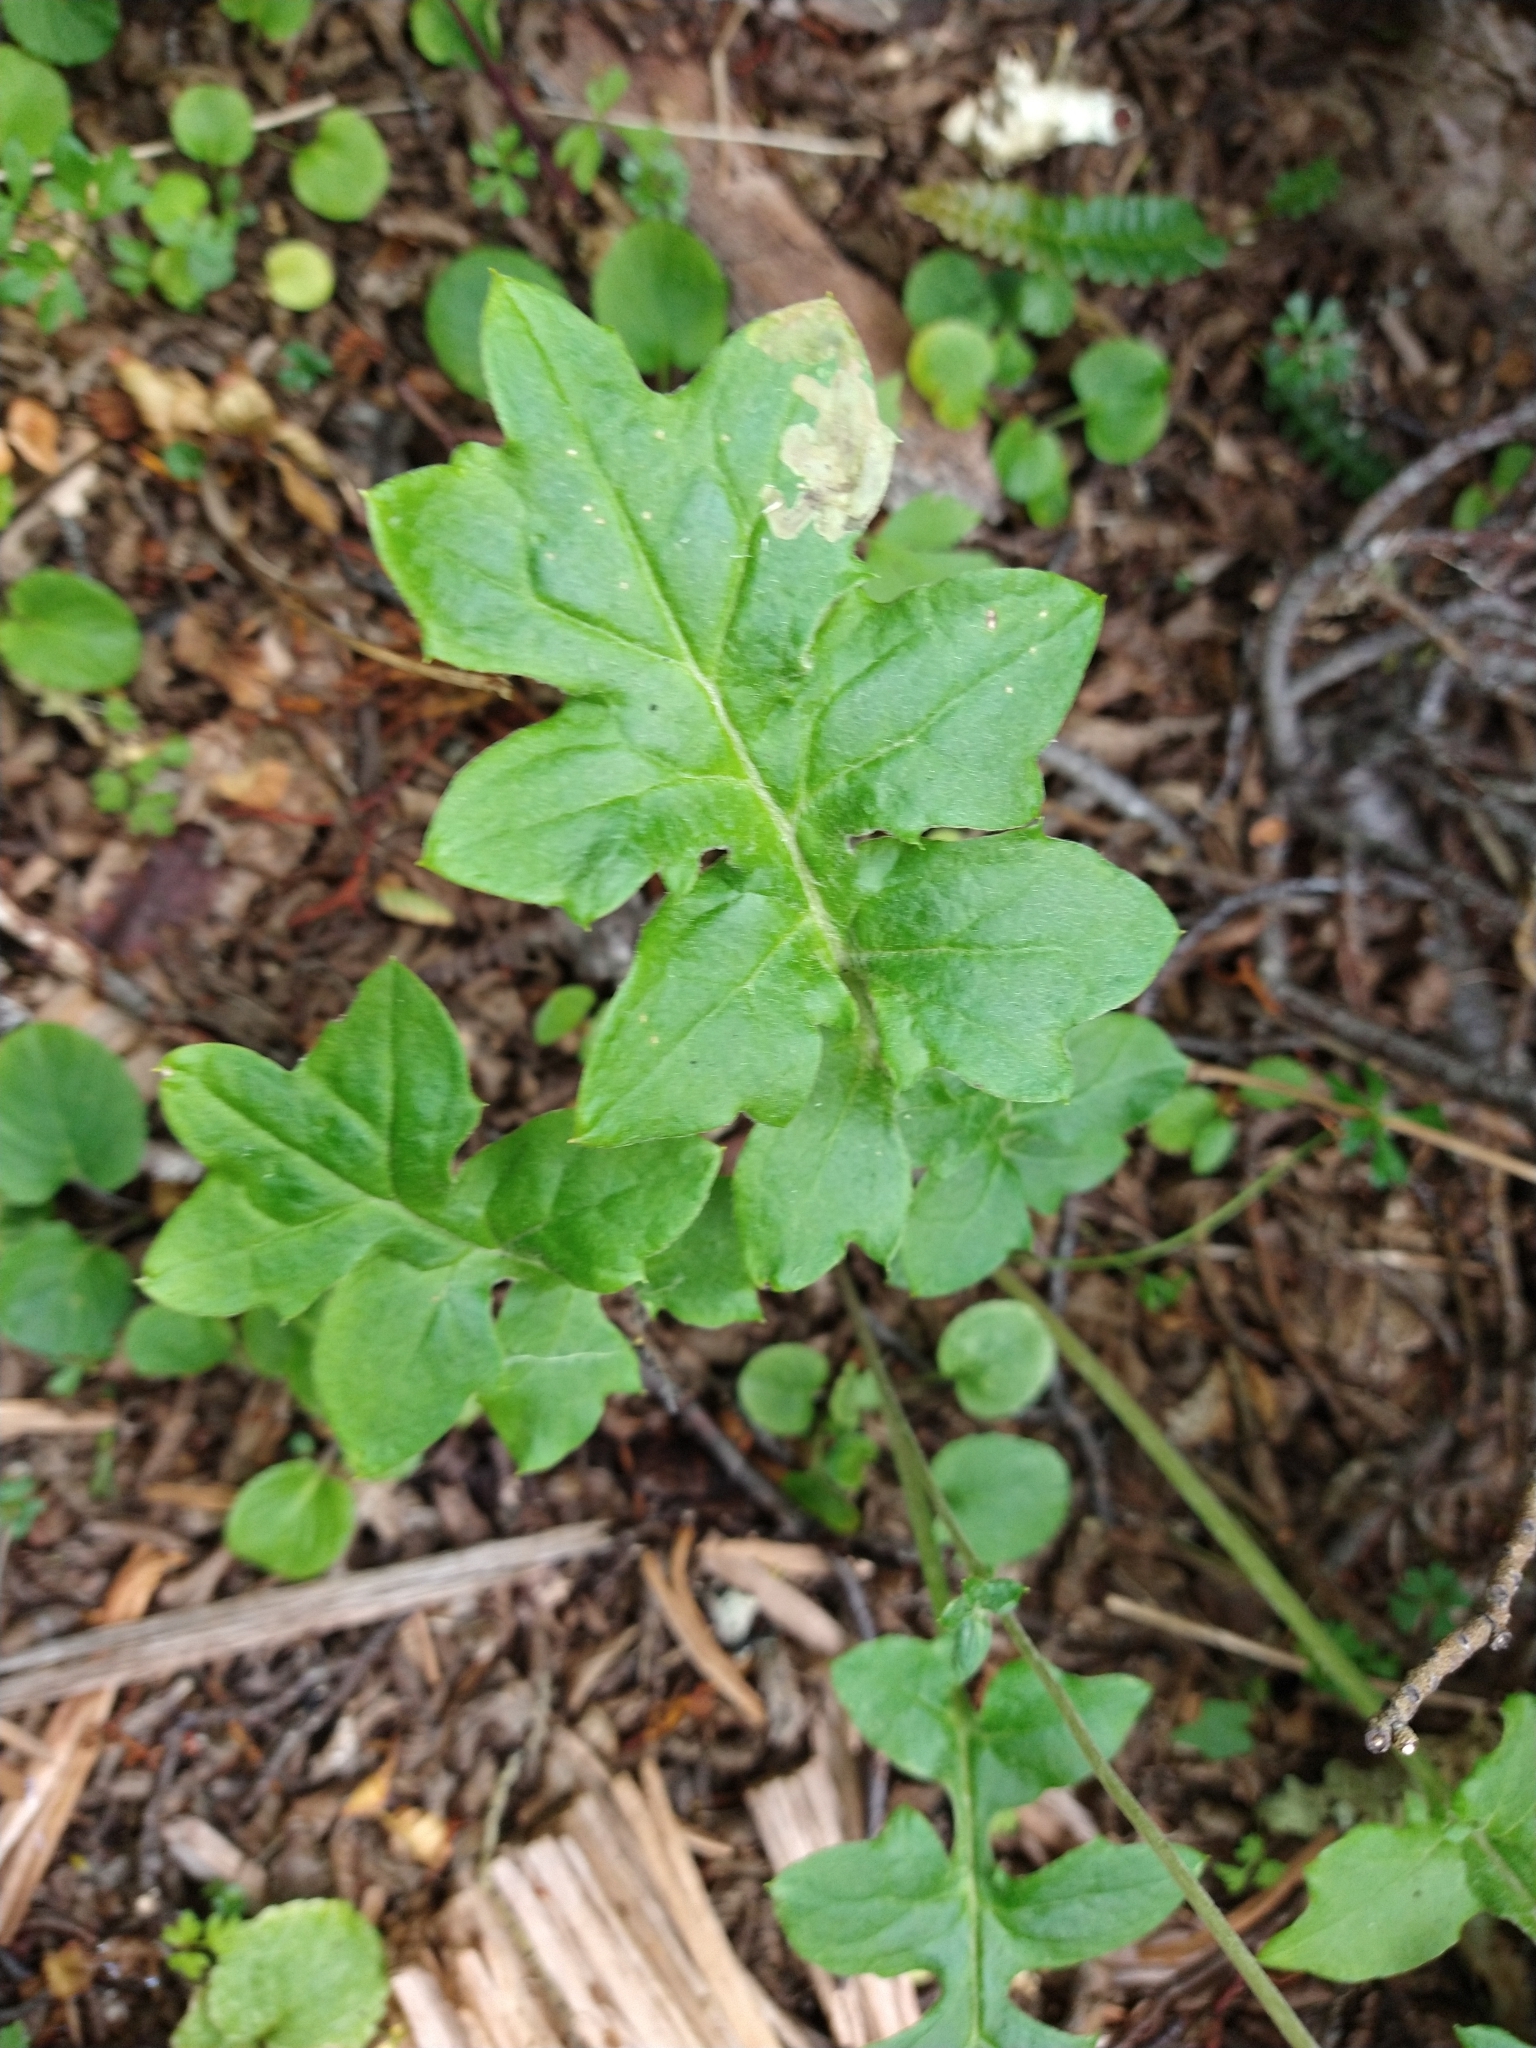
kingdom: Plantae
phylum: Tracheophyta
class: Magnoliopsida
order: Asterales
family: Asteraceae
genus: Macrachaenium
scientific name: Macrachaenium gracile
